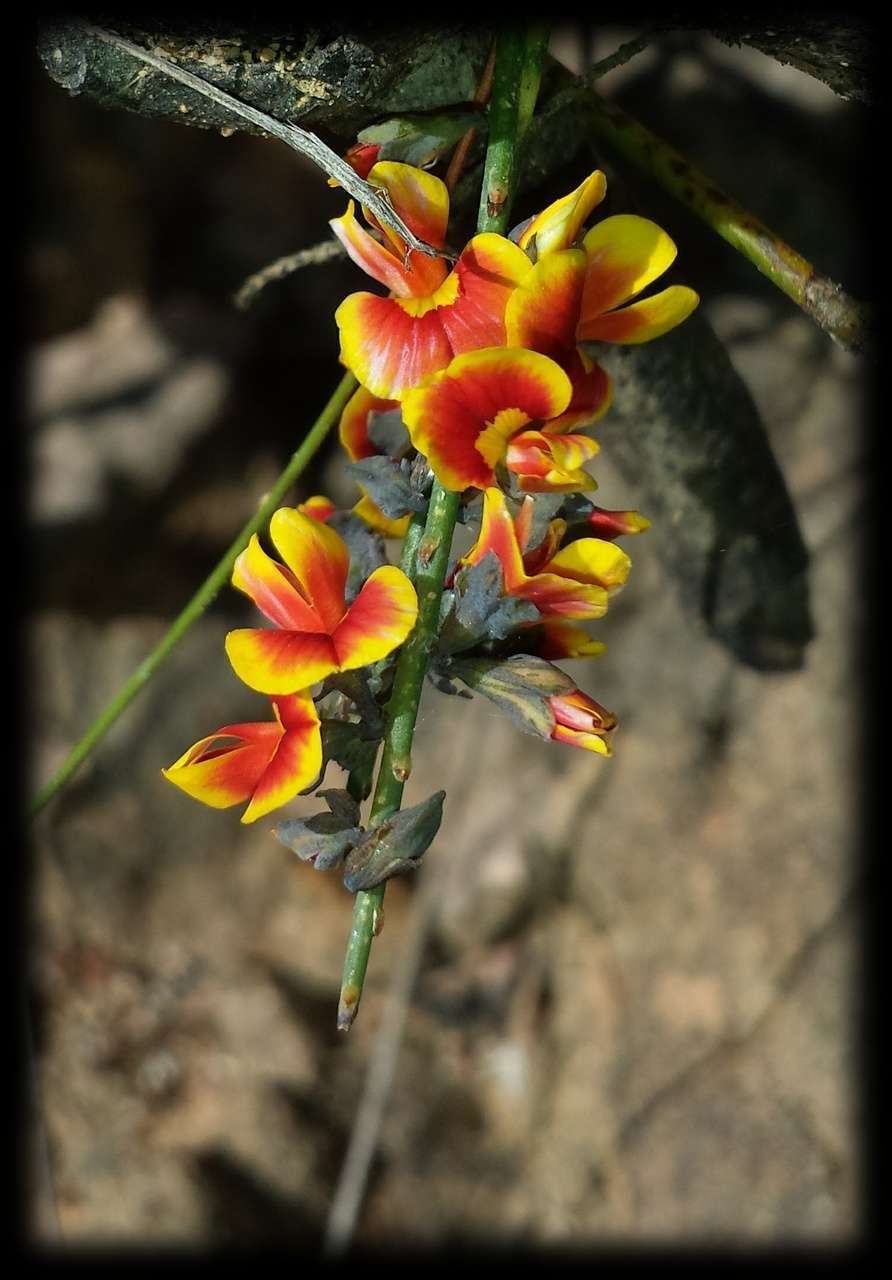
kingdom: Plantae
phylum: Tracheophyta
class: Magnoliopsida
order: Fabales
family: Fabaceae
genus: Sphaerolobium
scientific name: Sphaerolobium minus
